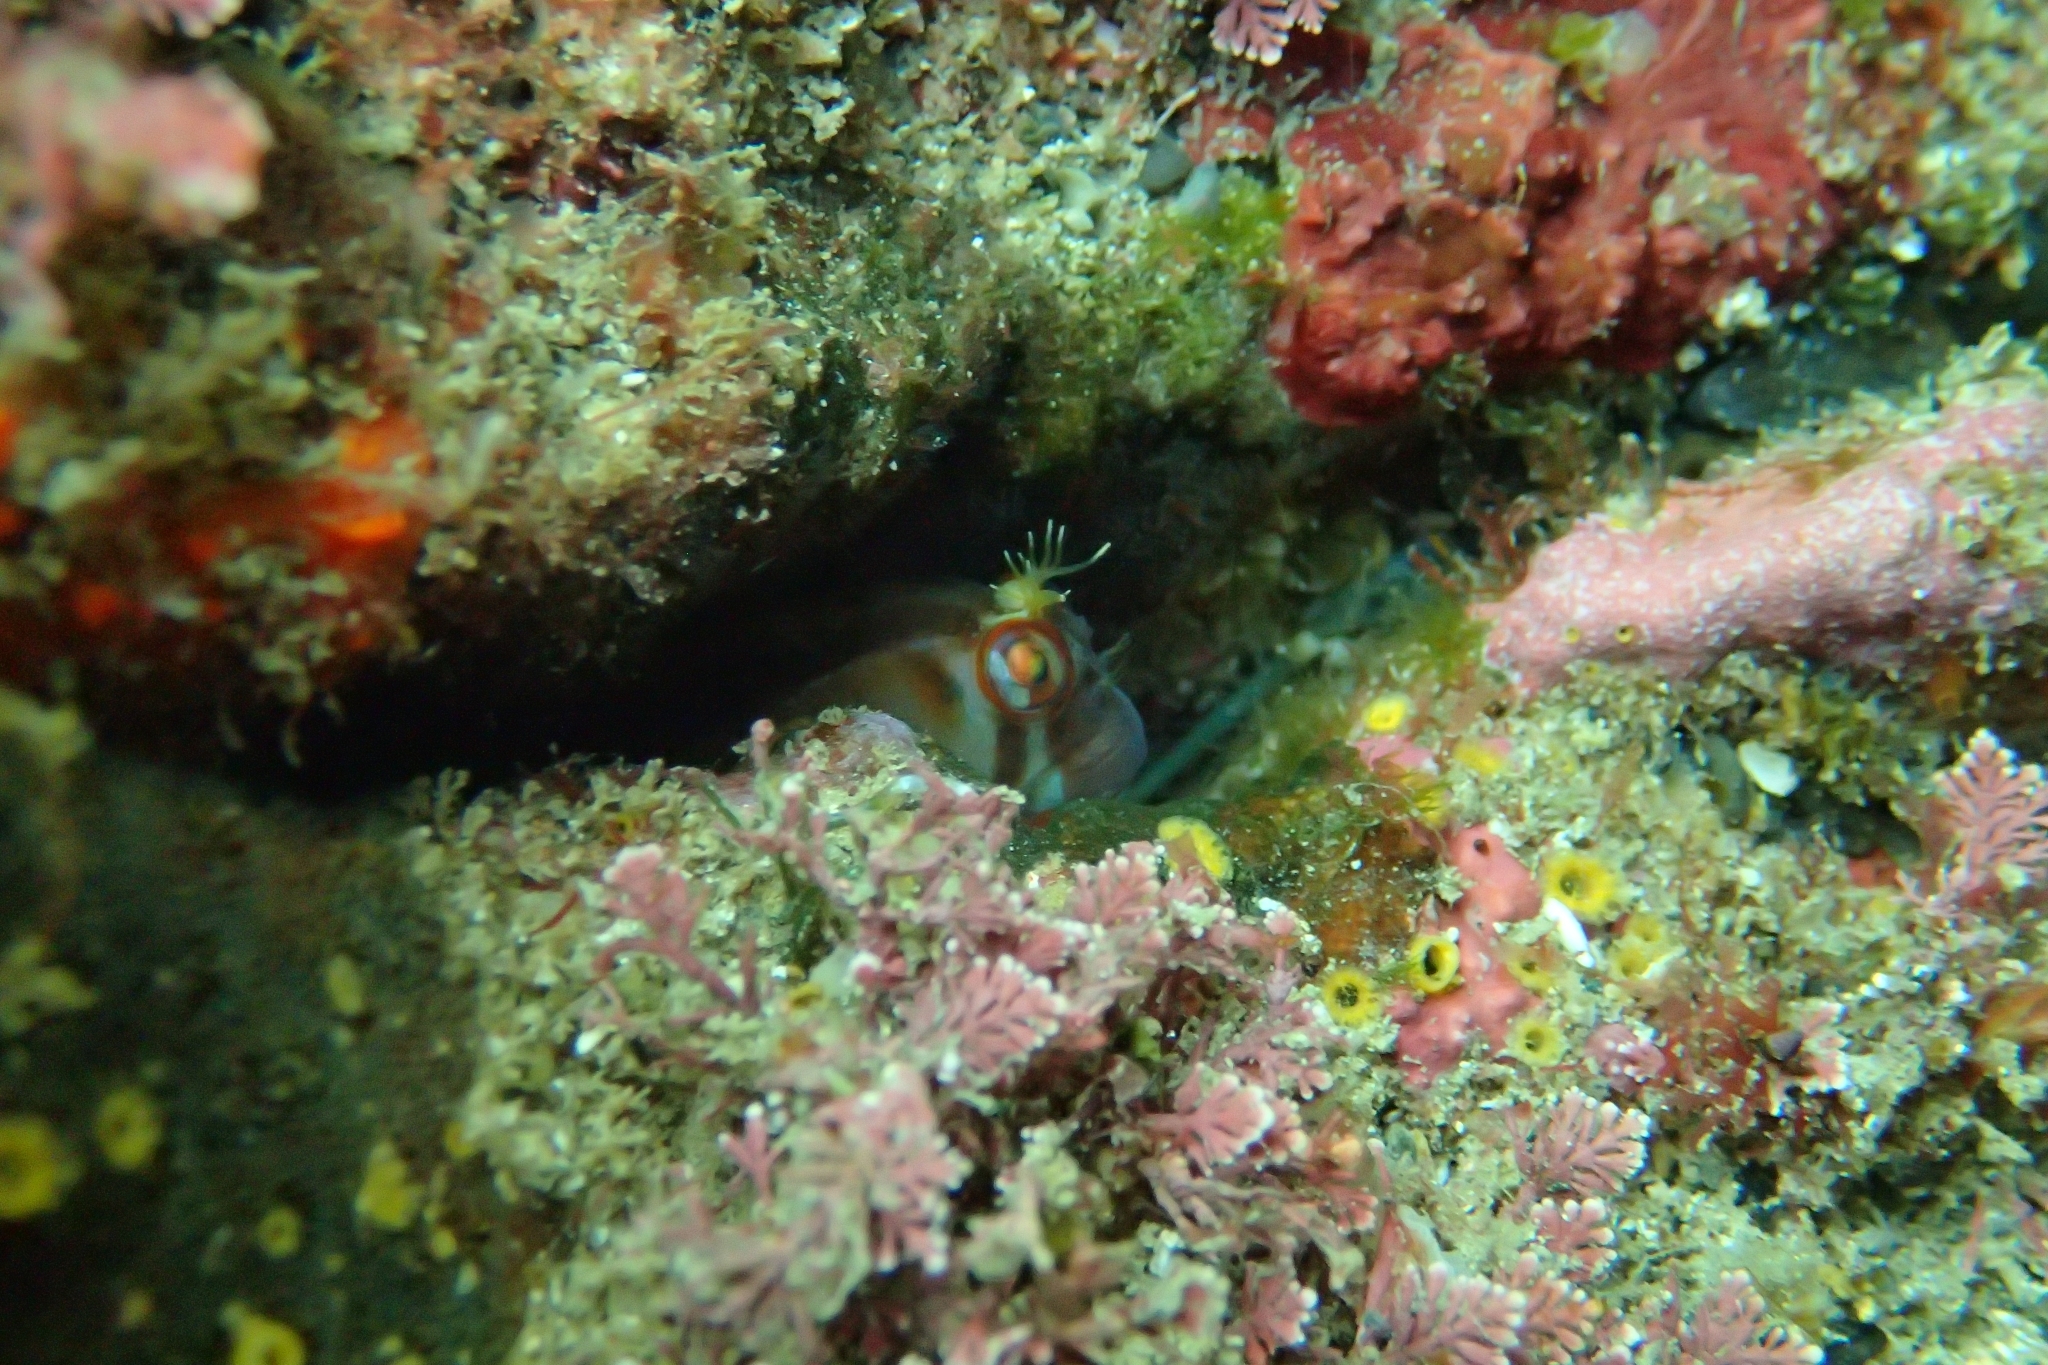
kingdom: Animalia
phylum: Chordata
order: Perciformes
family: Blenniidae
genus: Parablennius
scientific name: Parablennius laticlavius
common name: Crested blenny
